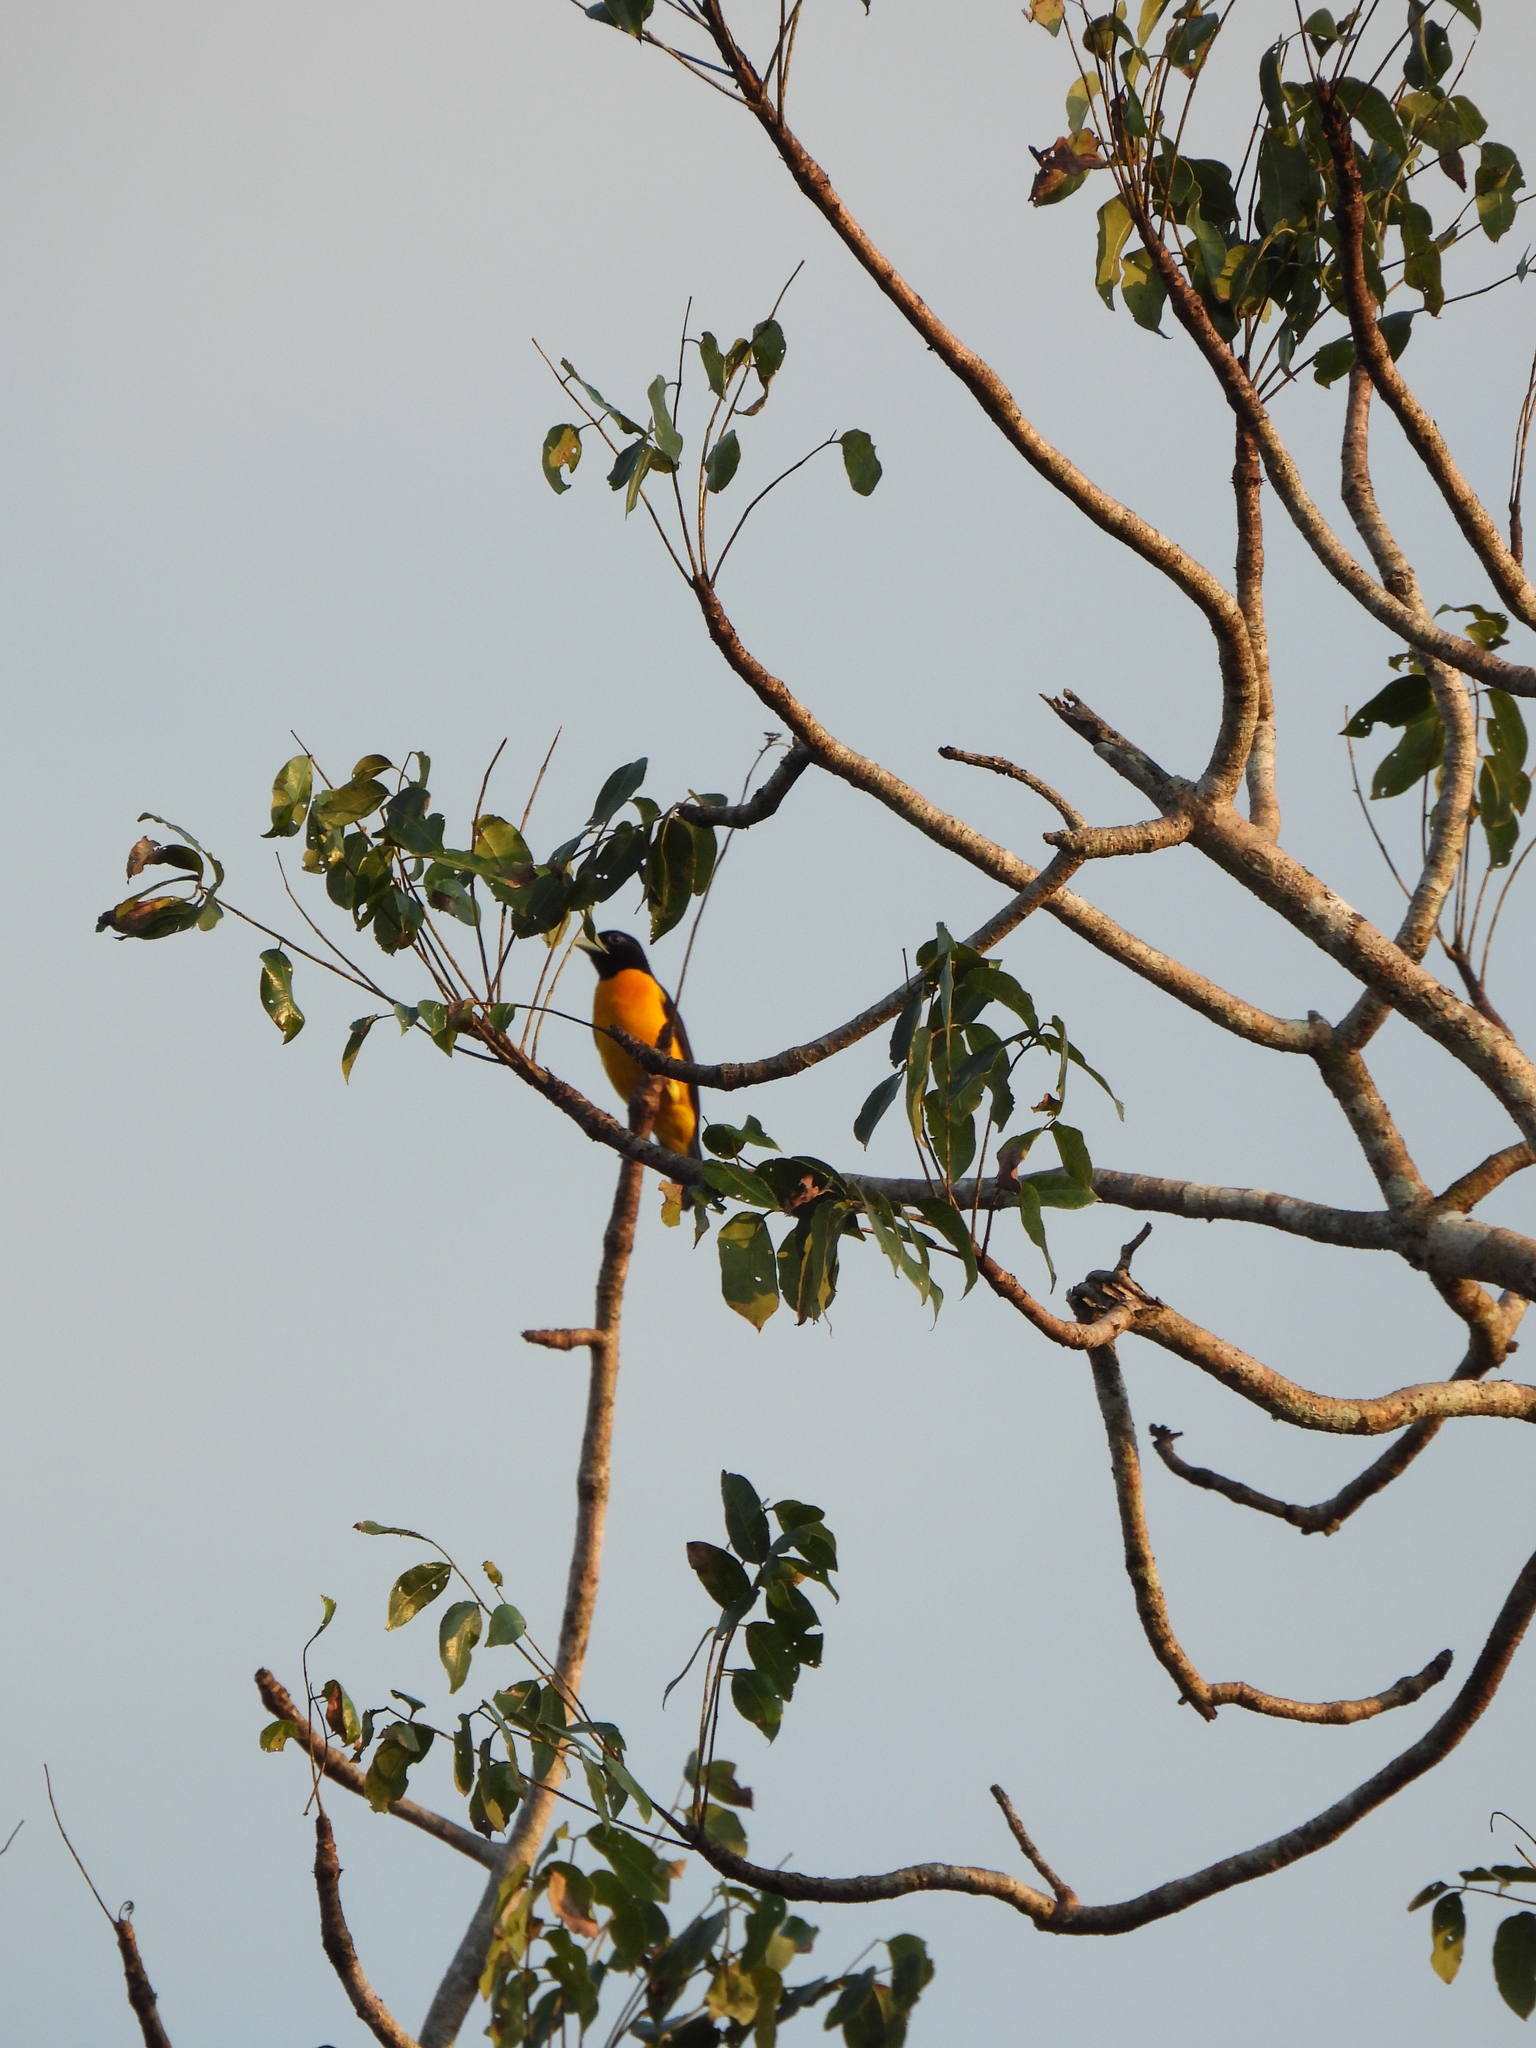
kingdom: Animalia
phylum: Chordata
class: Aves
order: Passeriformes
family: Ploceidae
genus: Ploceus
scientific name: Ploceus bicolor
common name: Dark-backed weaver
